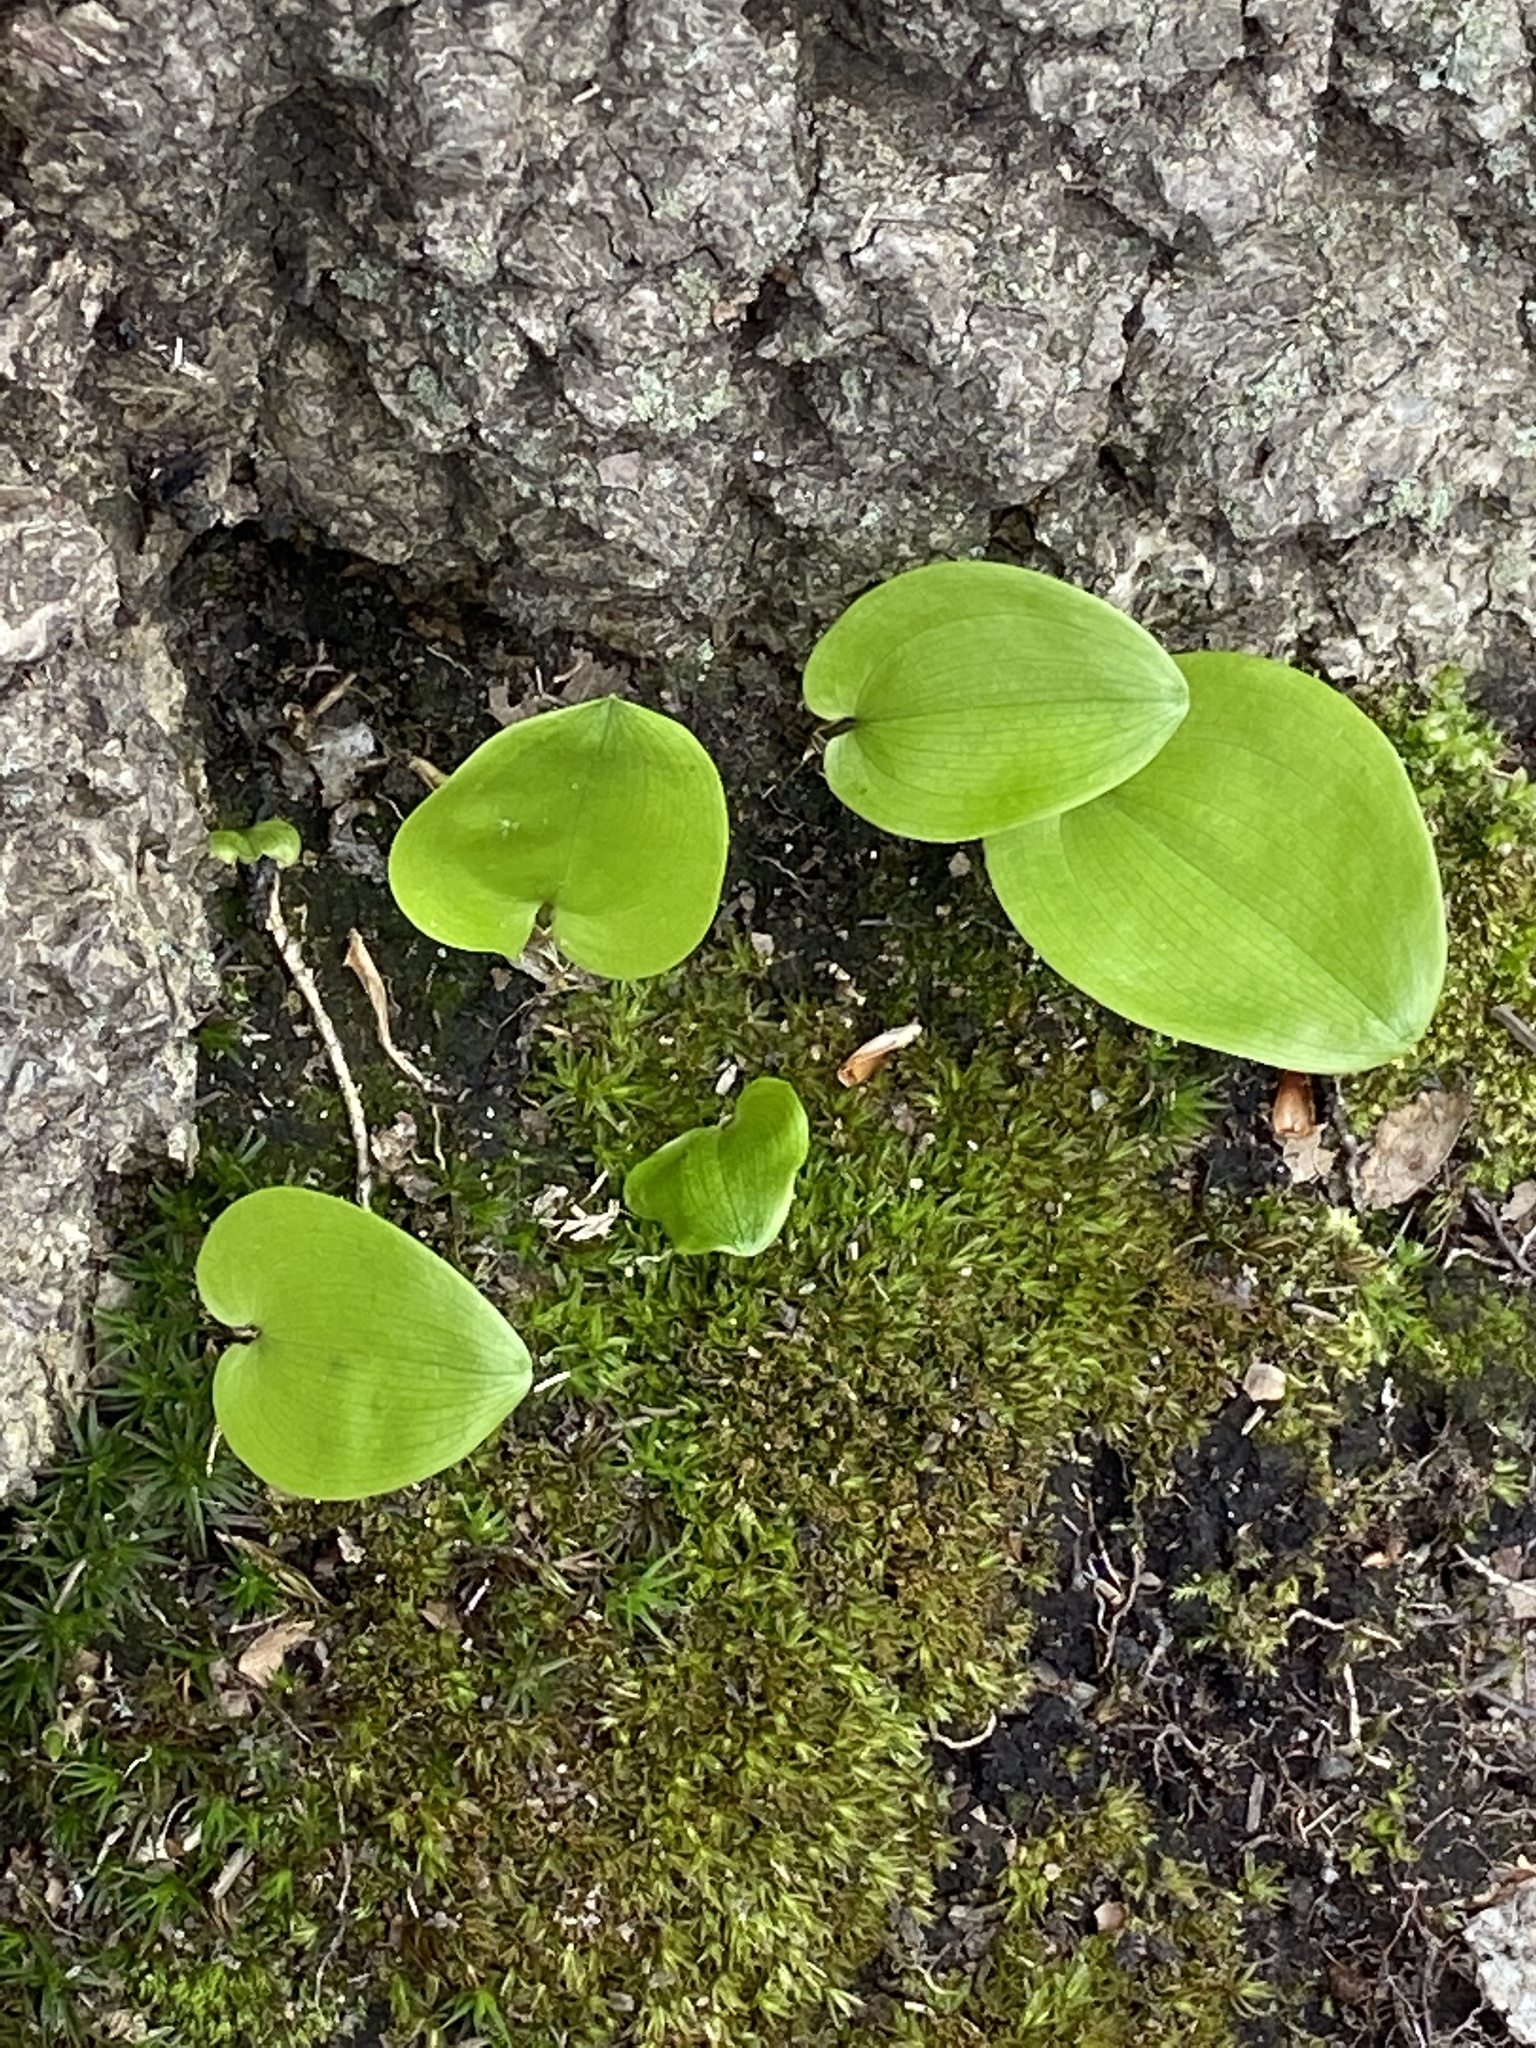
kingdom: Plantae
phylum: Tracheophyta
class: Liliopsida
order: Asparagales
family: Asparagaceae
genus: Maianthemum
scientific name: Maianthemum canadense
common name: False lily-of-the-valley
